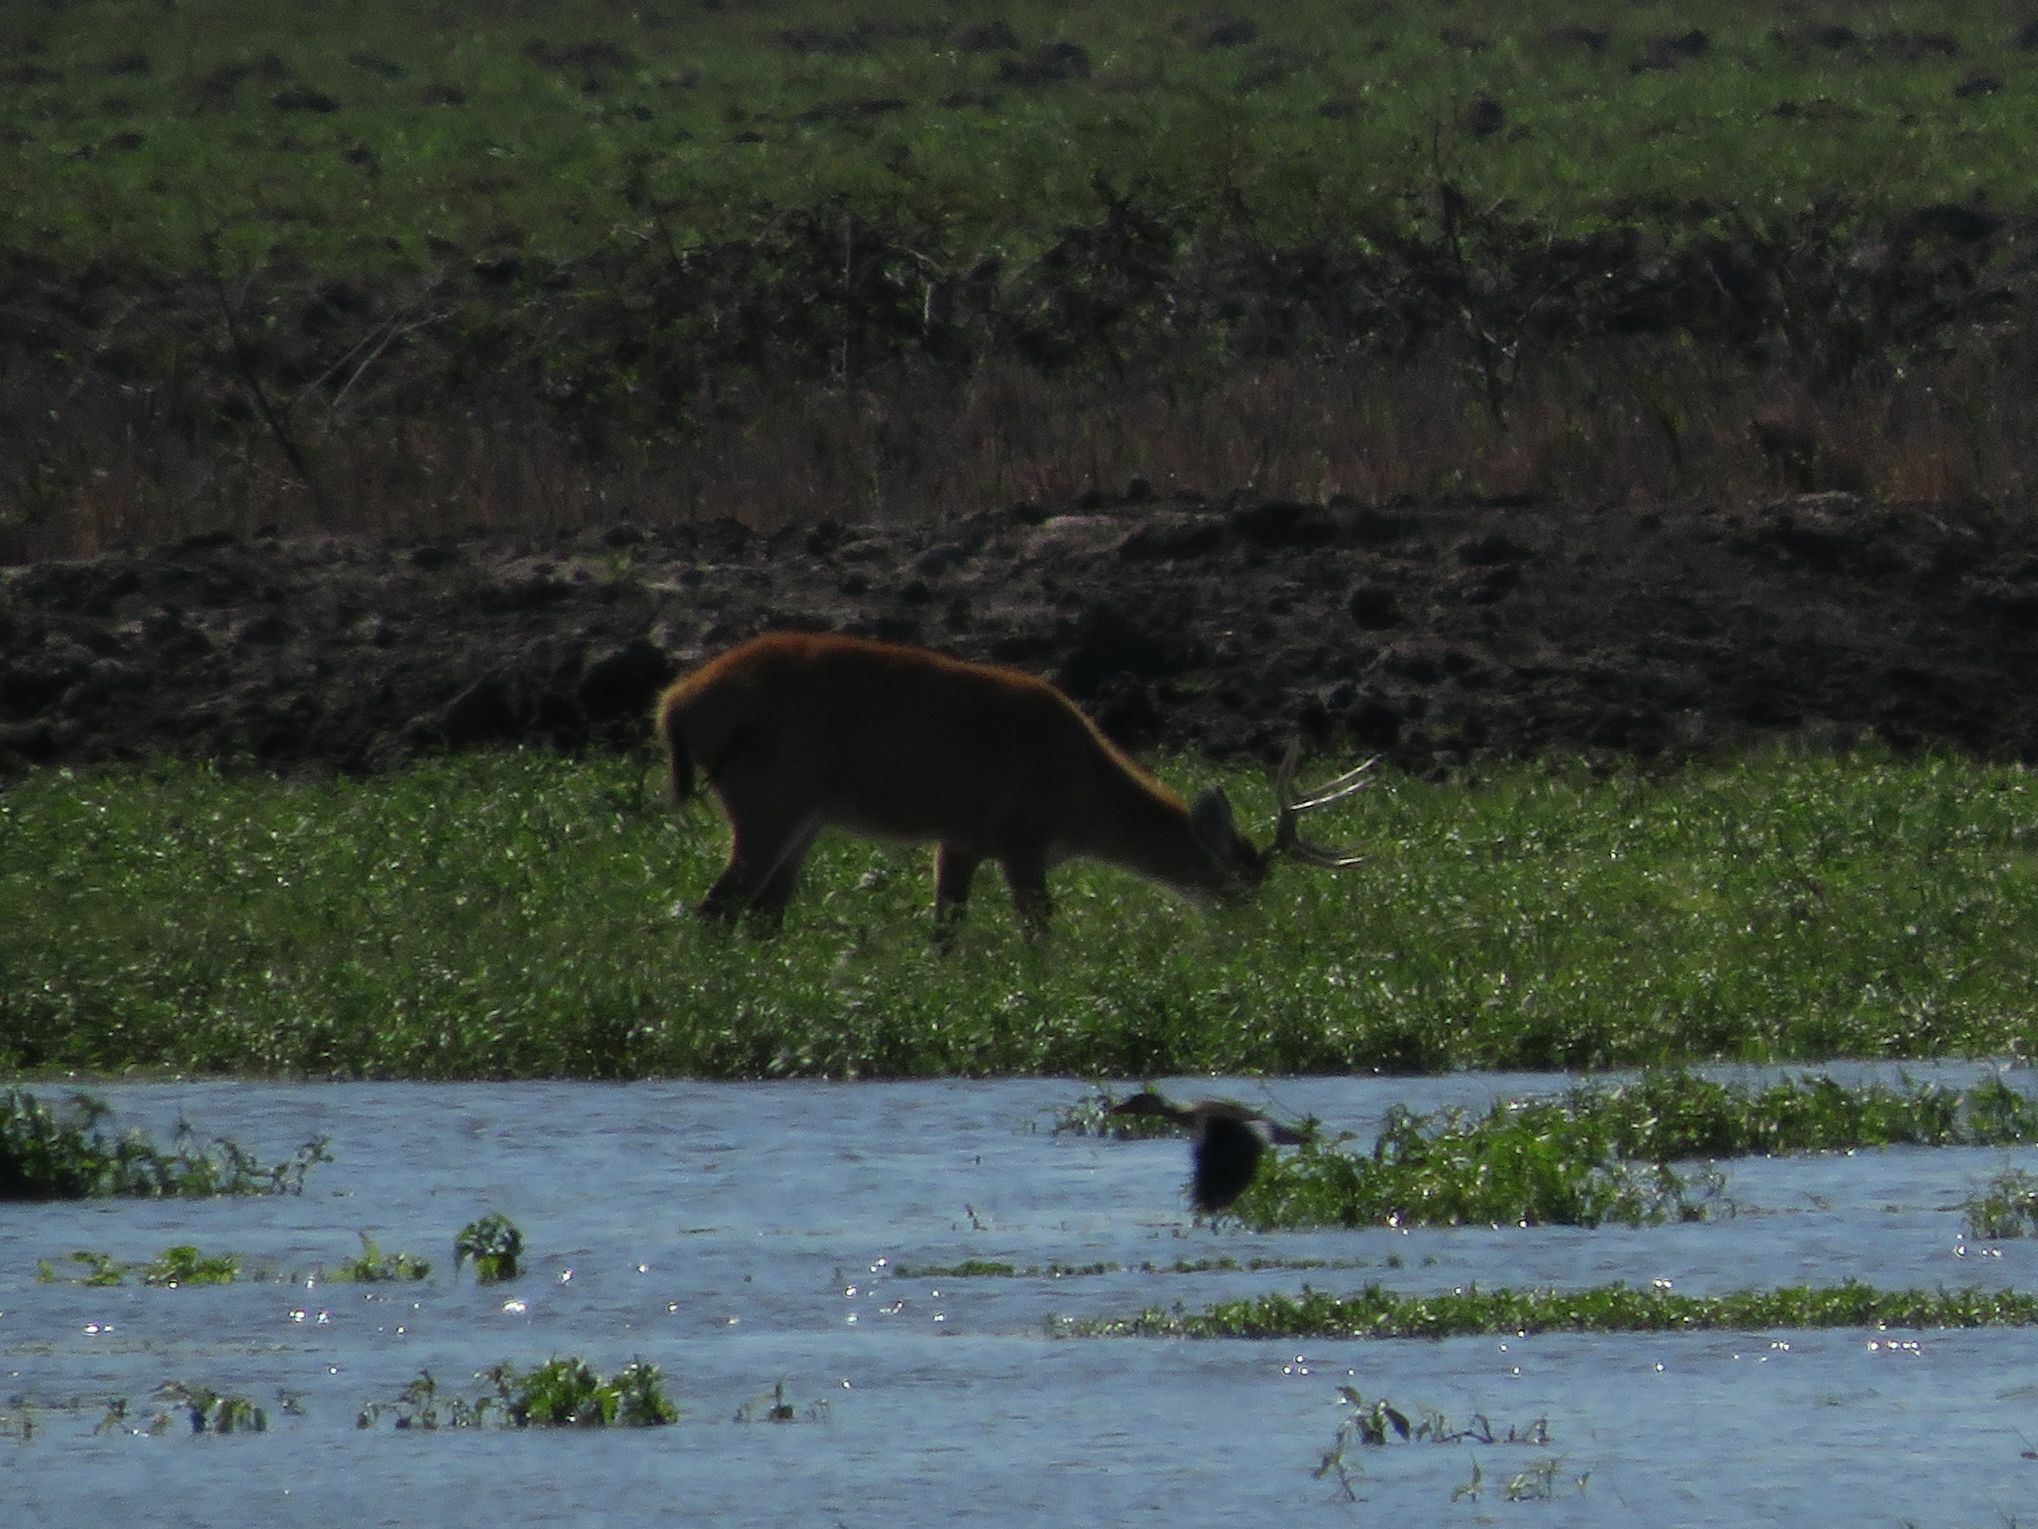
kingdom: Animalia
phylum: Chordata
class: Mammalia
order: Artiodactyla
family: Cervidae
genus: Blastocerus
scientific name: Blastocerus dichotomus
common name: Marsh deer
